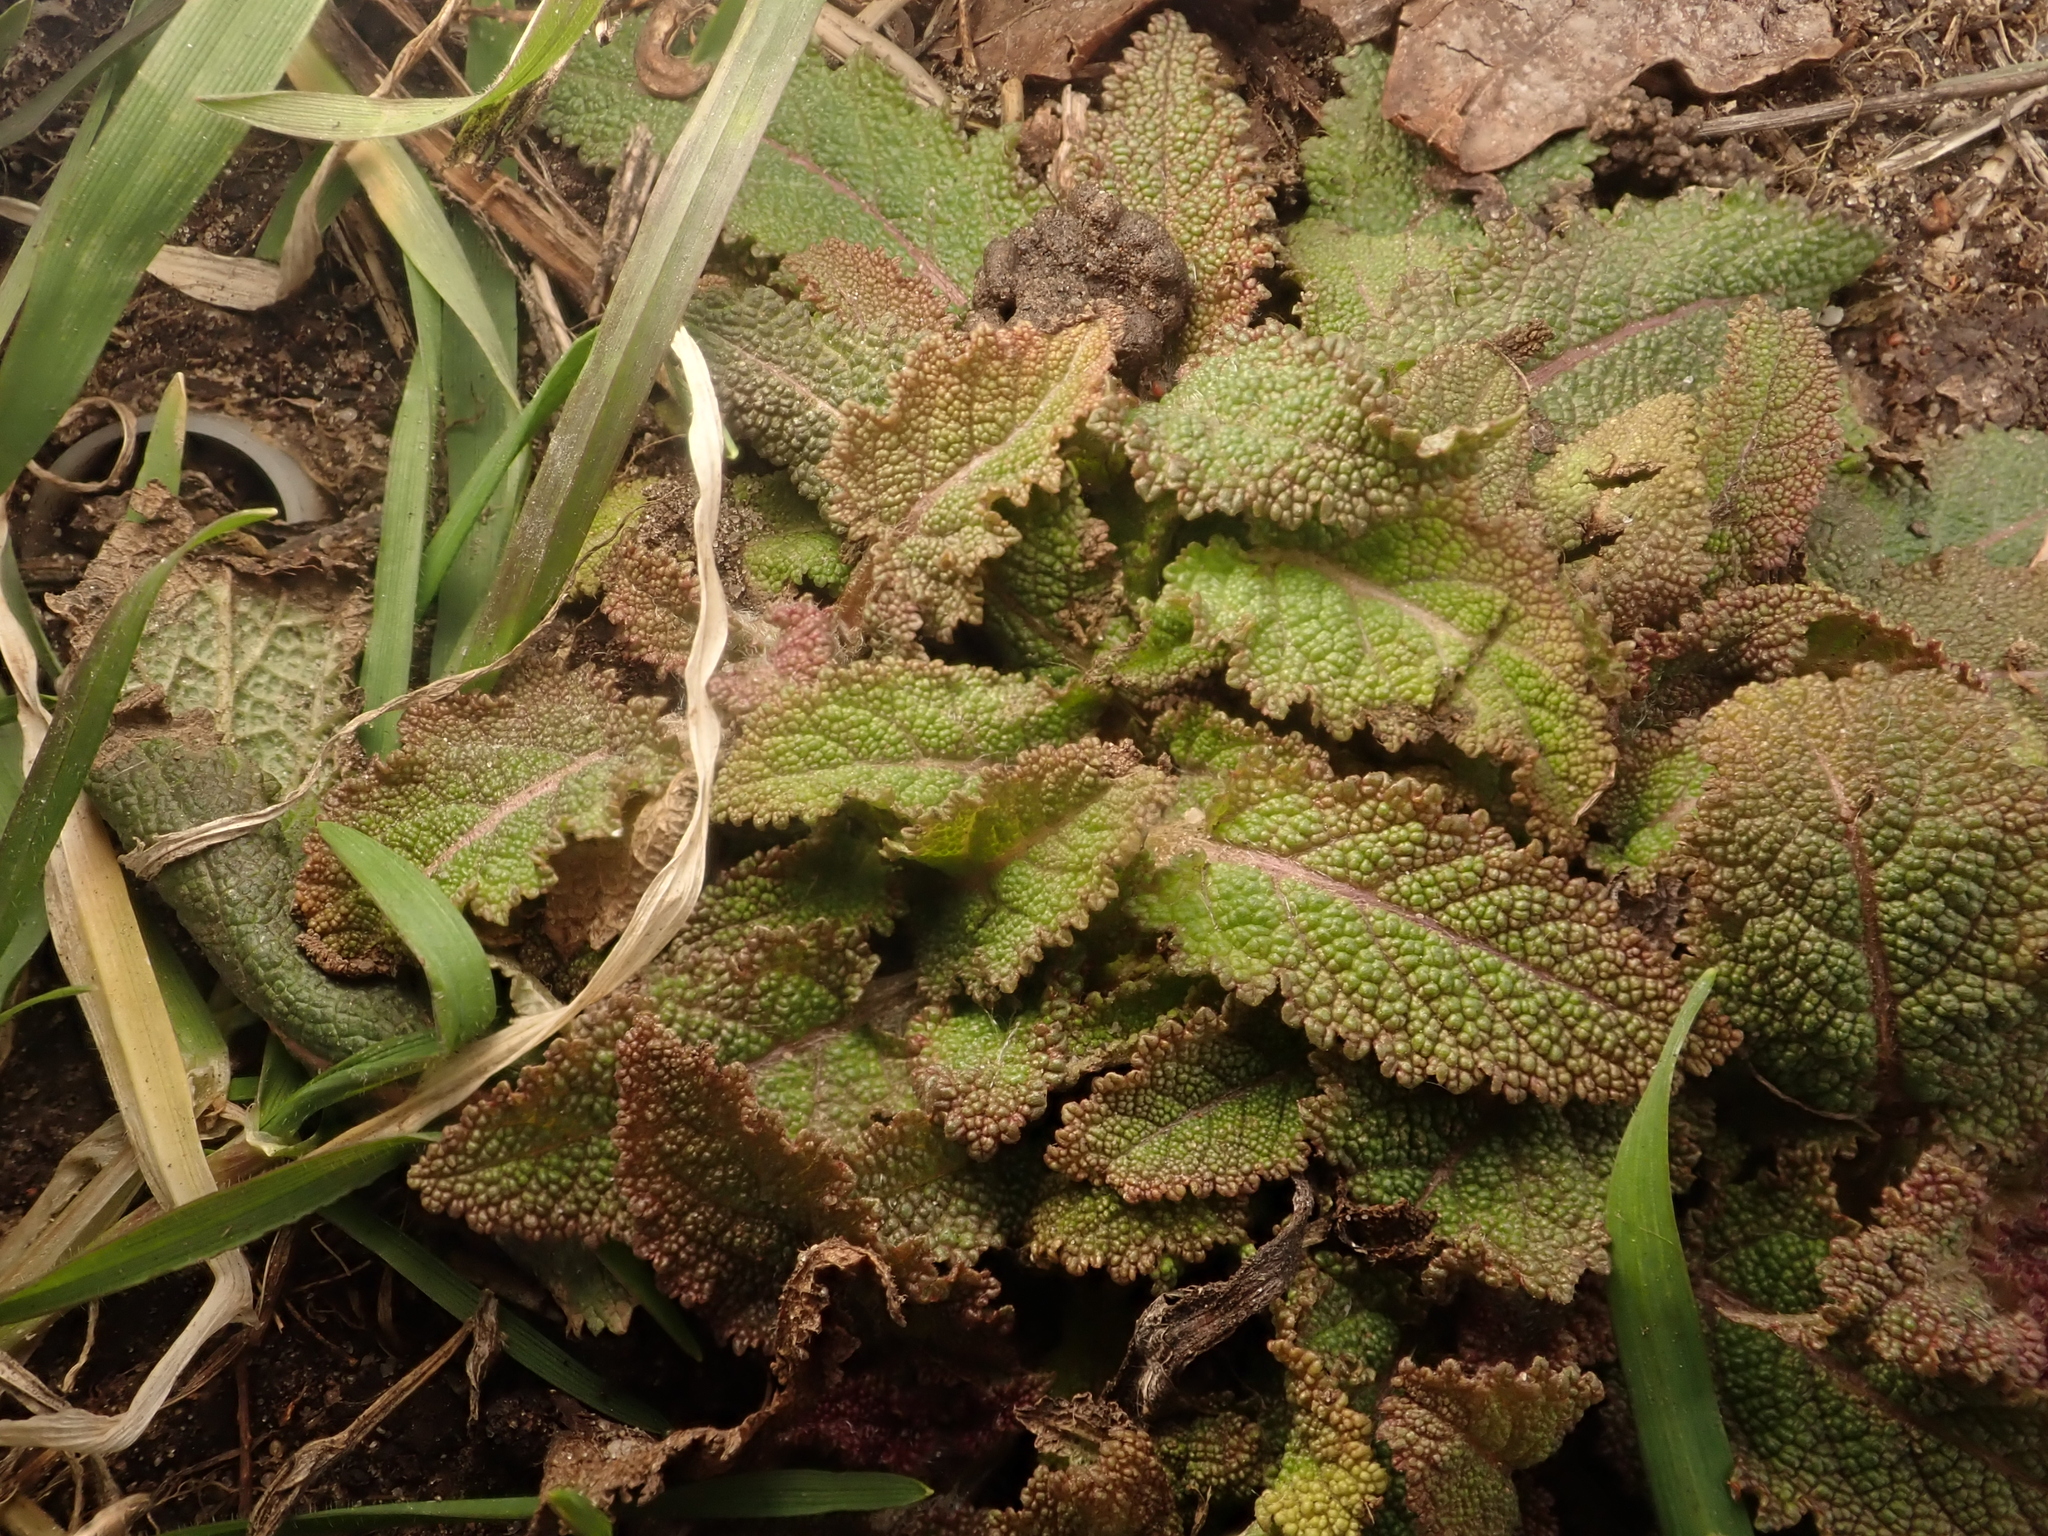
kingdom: Plantae
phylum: Tracheophyta
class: Magnoliopsida
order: Lamiales
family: Lamiaceae
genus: Salvia
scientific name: Salvia pratensis
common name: Meadow sage
